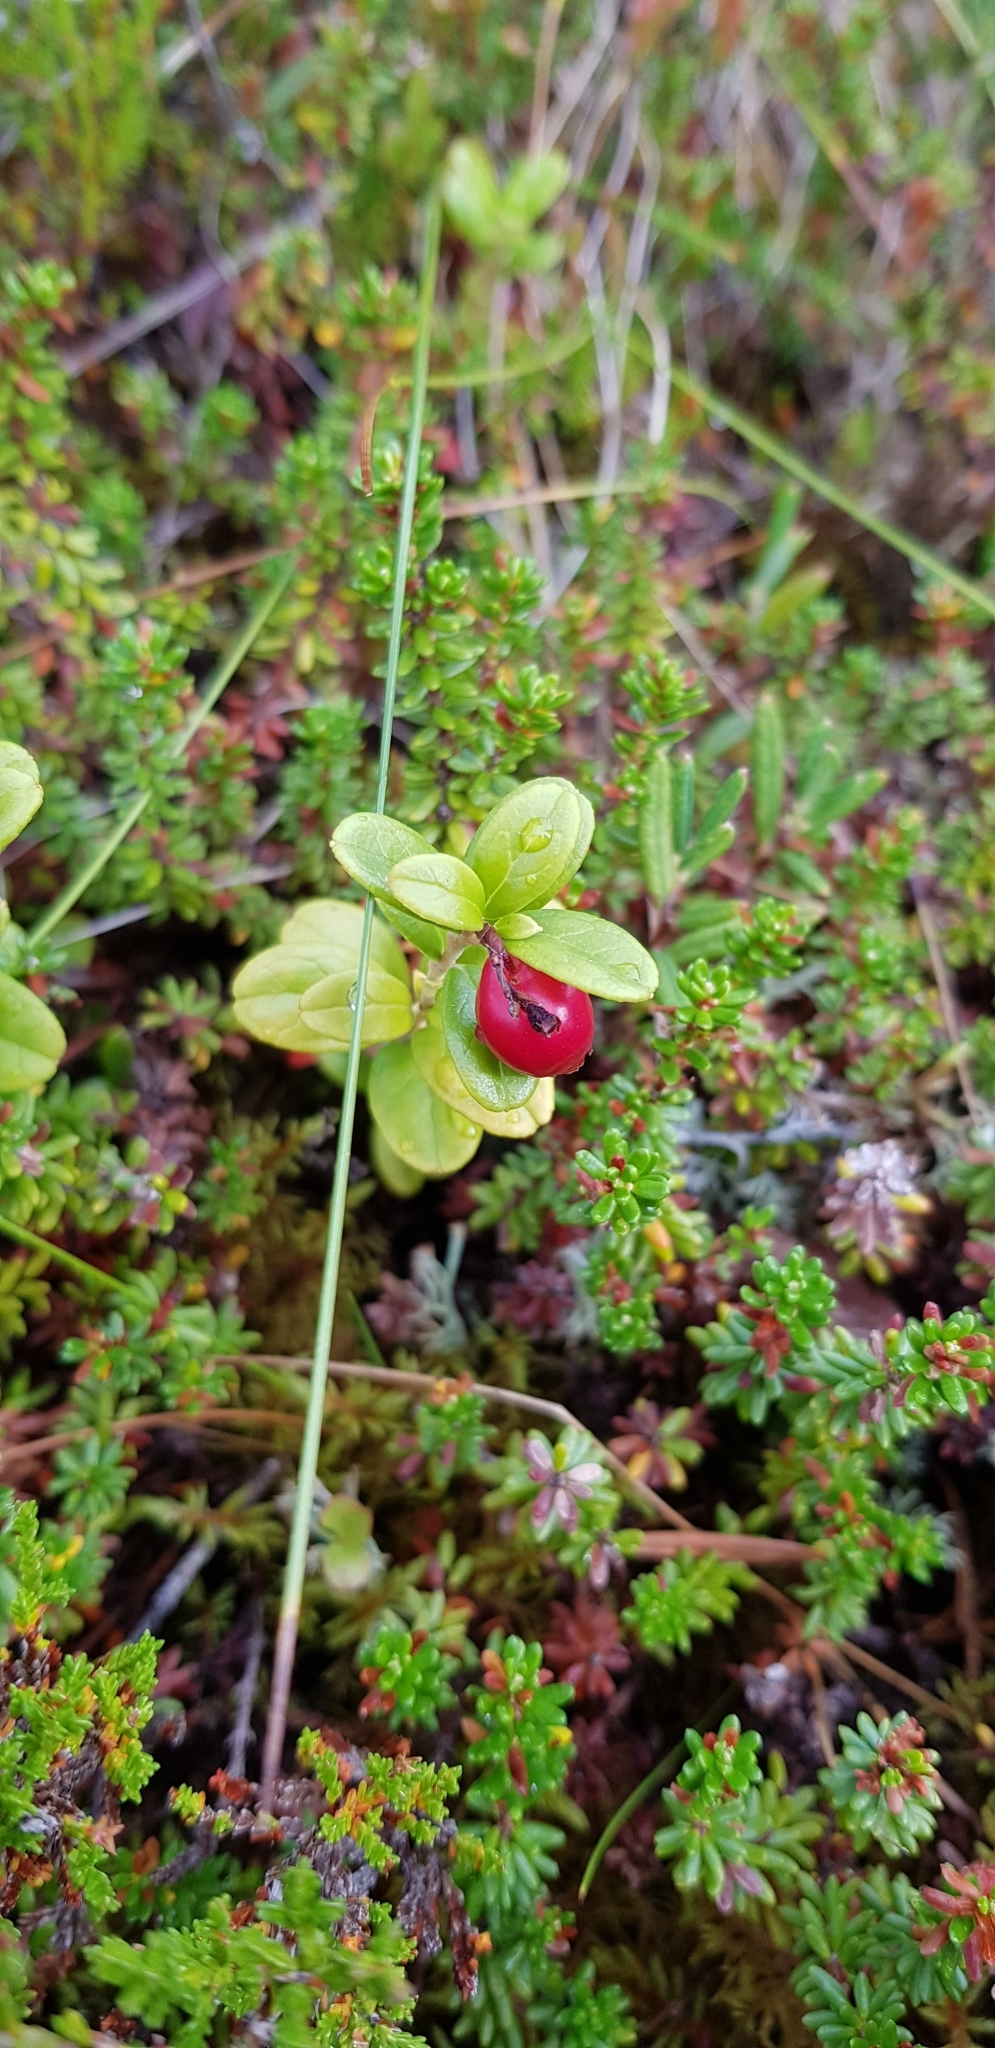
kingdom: Plantae
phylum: Tracheophyta
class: Magnoliopsida
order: Ericales
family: Ericaceae
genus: Vaccinium
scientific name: Vaccinium vitis-idaea
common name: Cowberry
